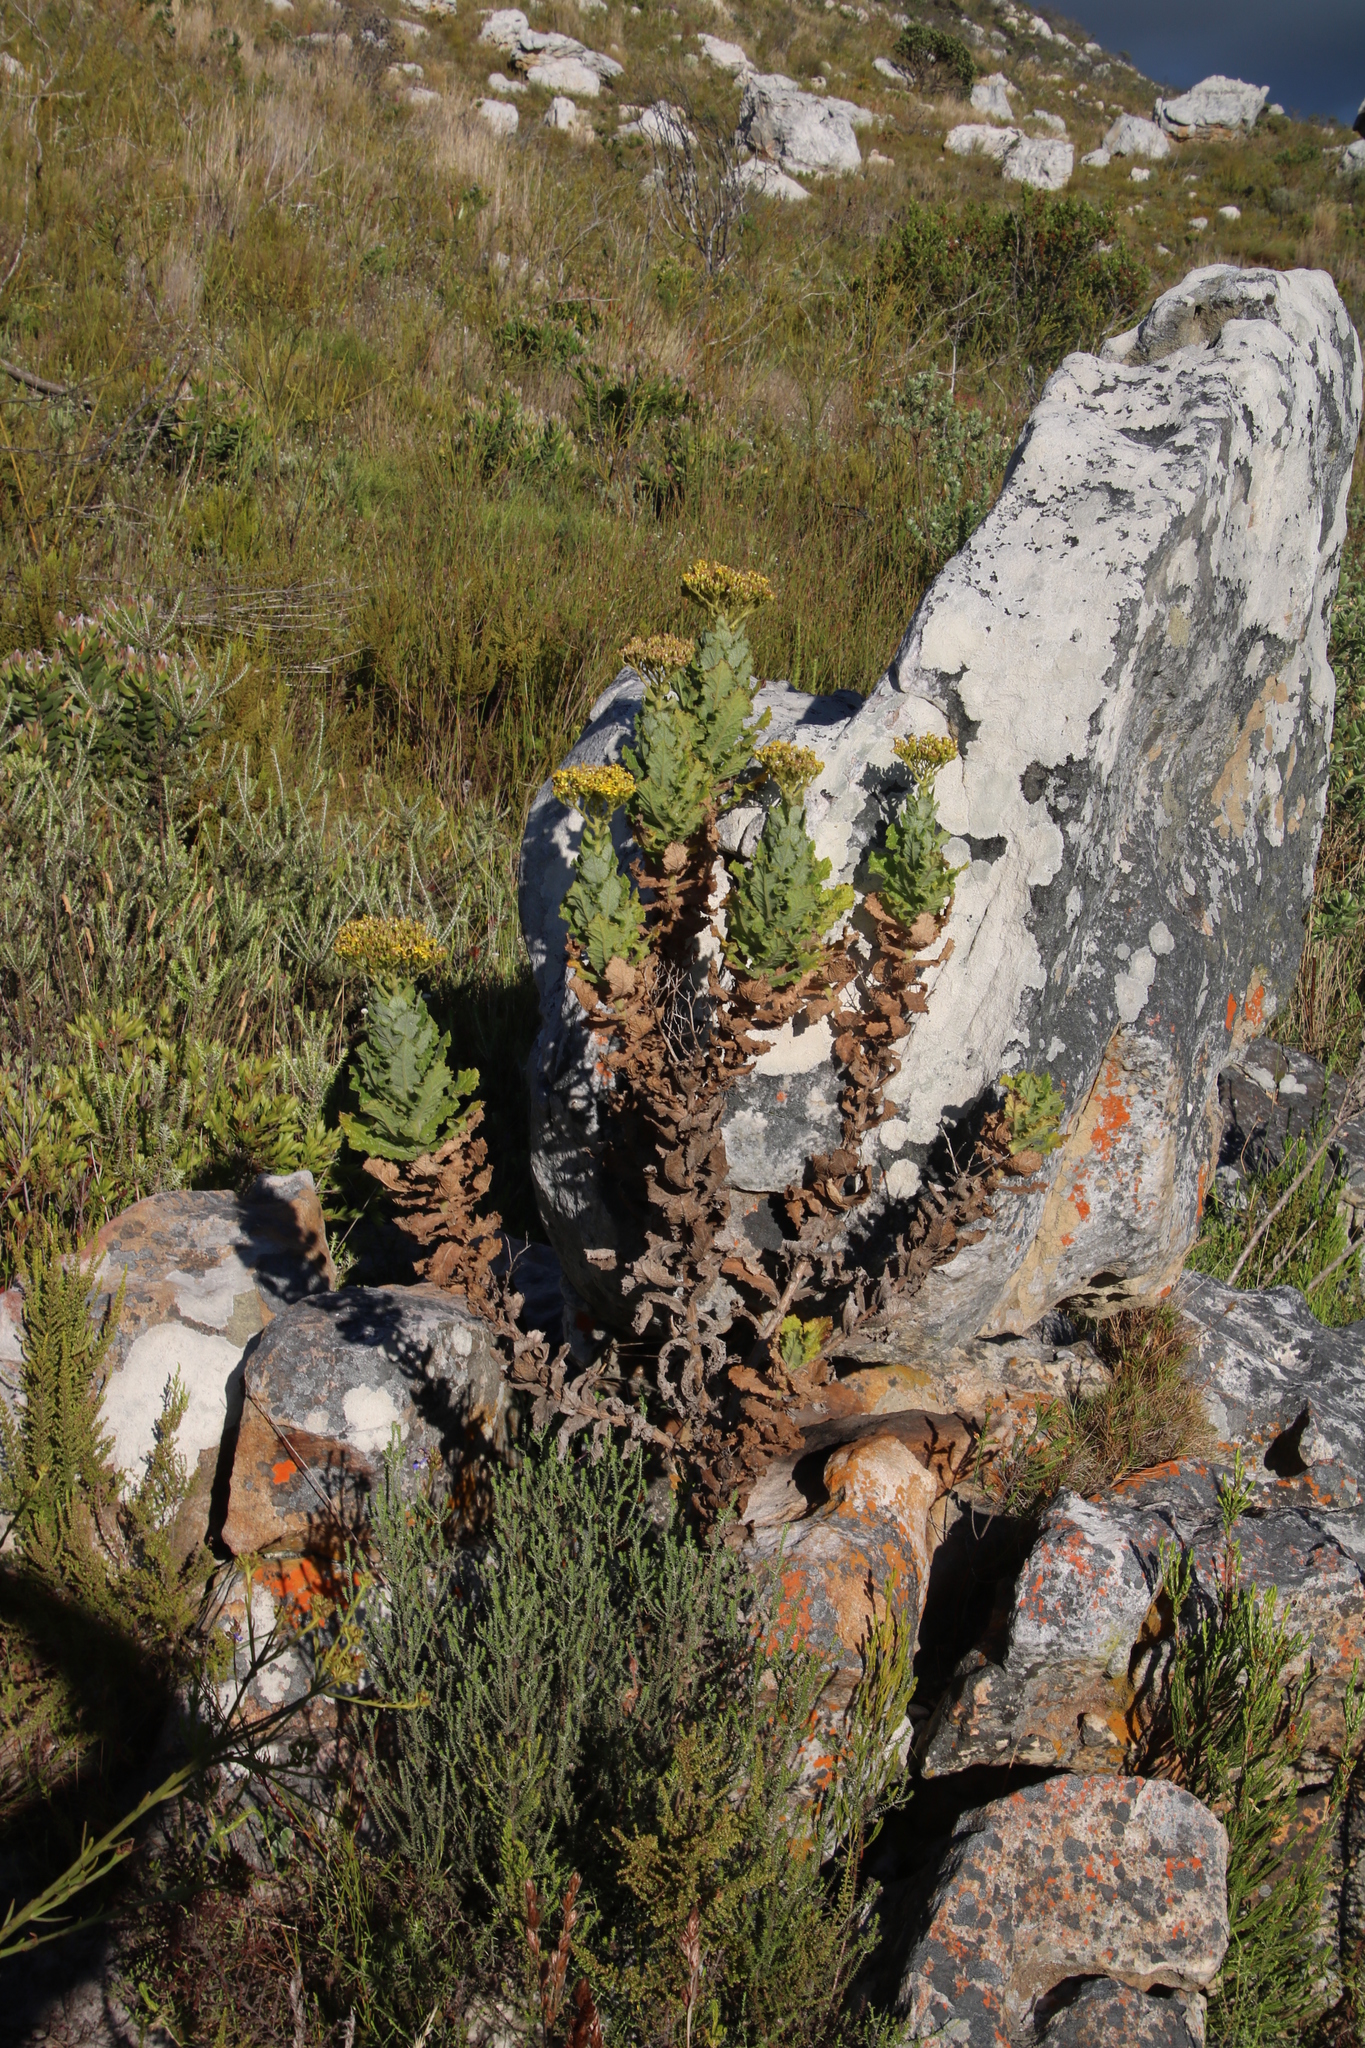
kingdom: Plantae
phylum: Tracheophyta
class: Magnoliopsida
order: Asterales
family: Asteraceae
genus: Senecio
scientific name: Senecio rigidus
